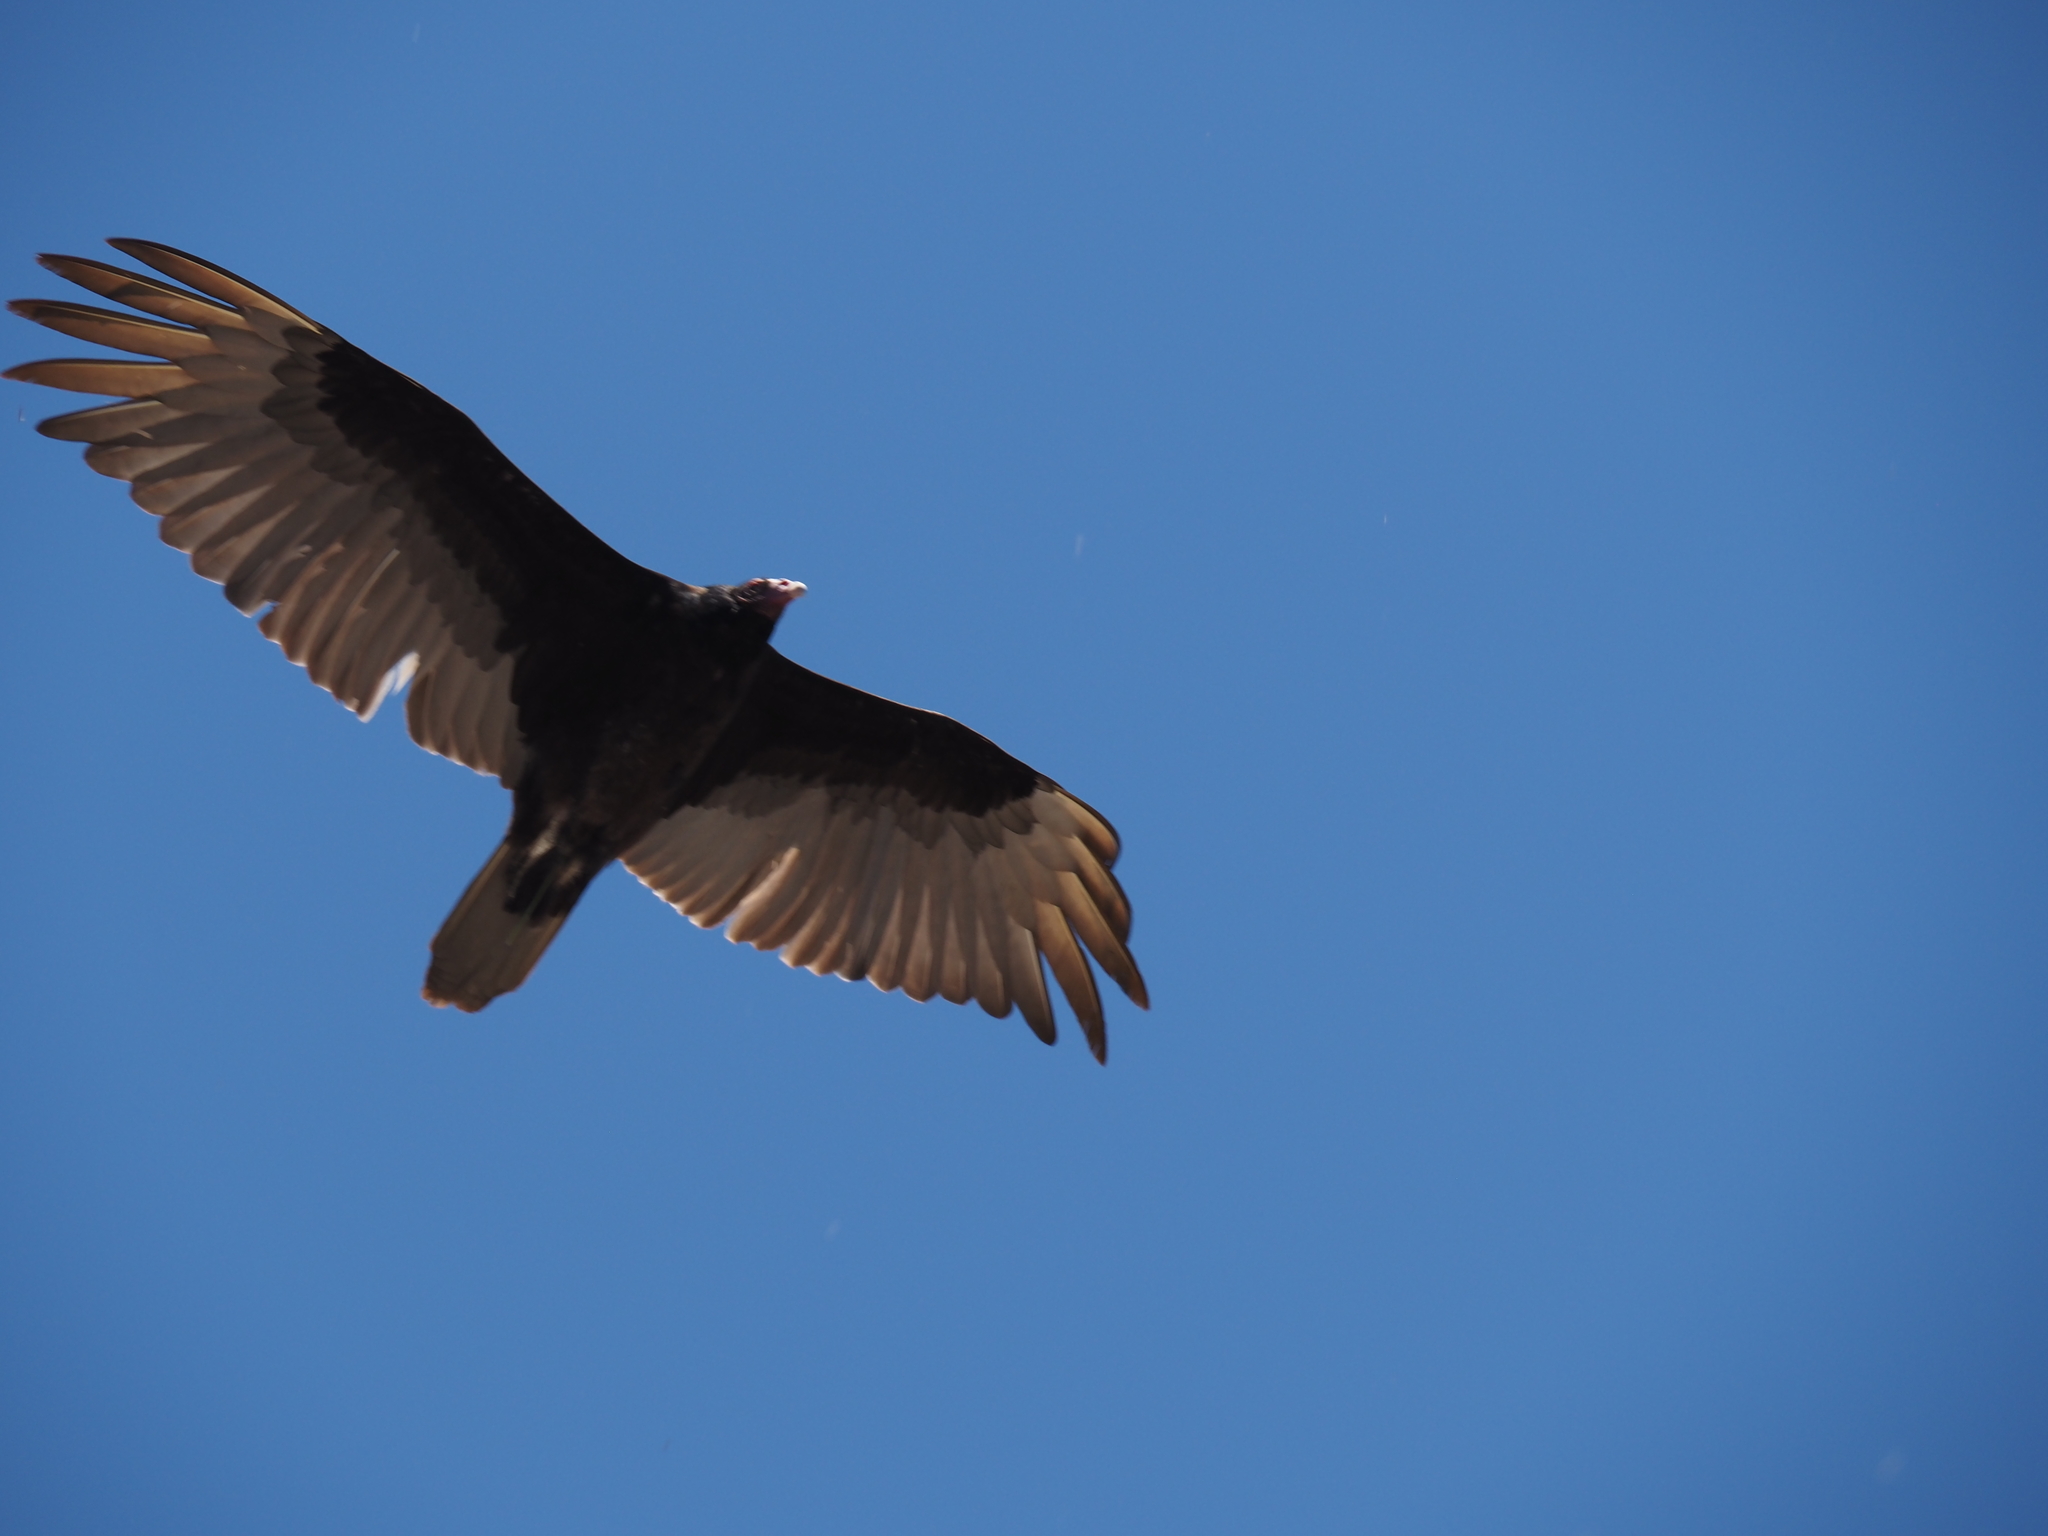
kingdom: Animalia
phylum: Chordata
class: Aves
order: Accipitriformes
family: Cathartidae
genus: Cathartes
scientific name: Cathartes aura
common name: Turkey vulture
